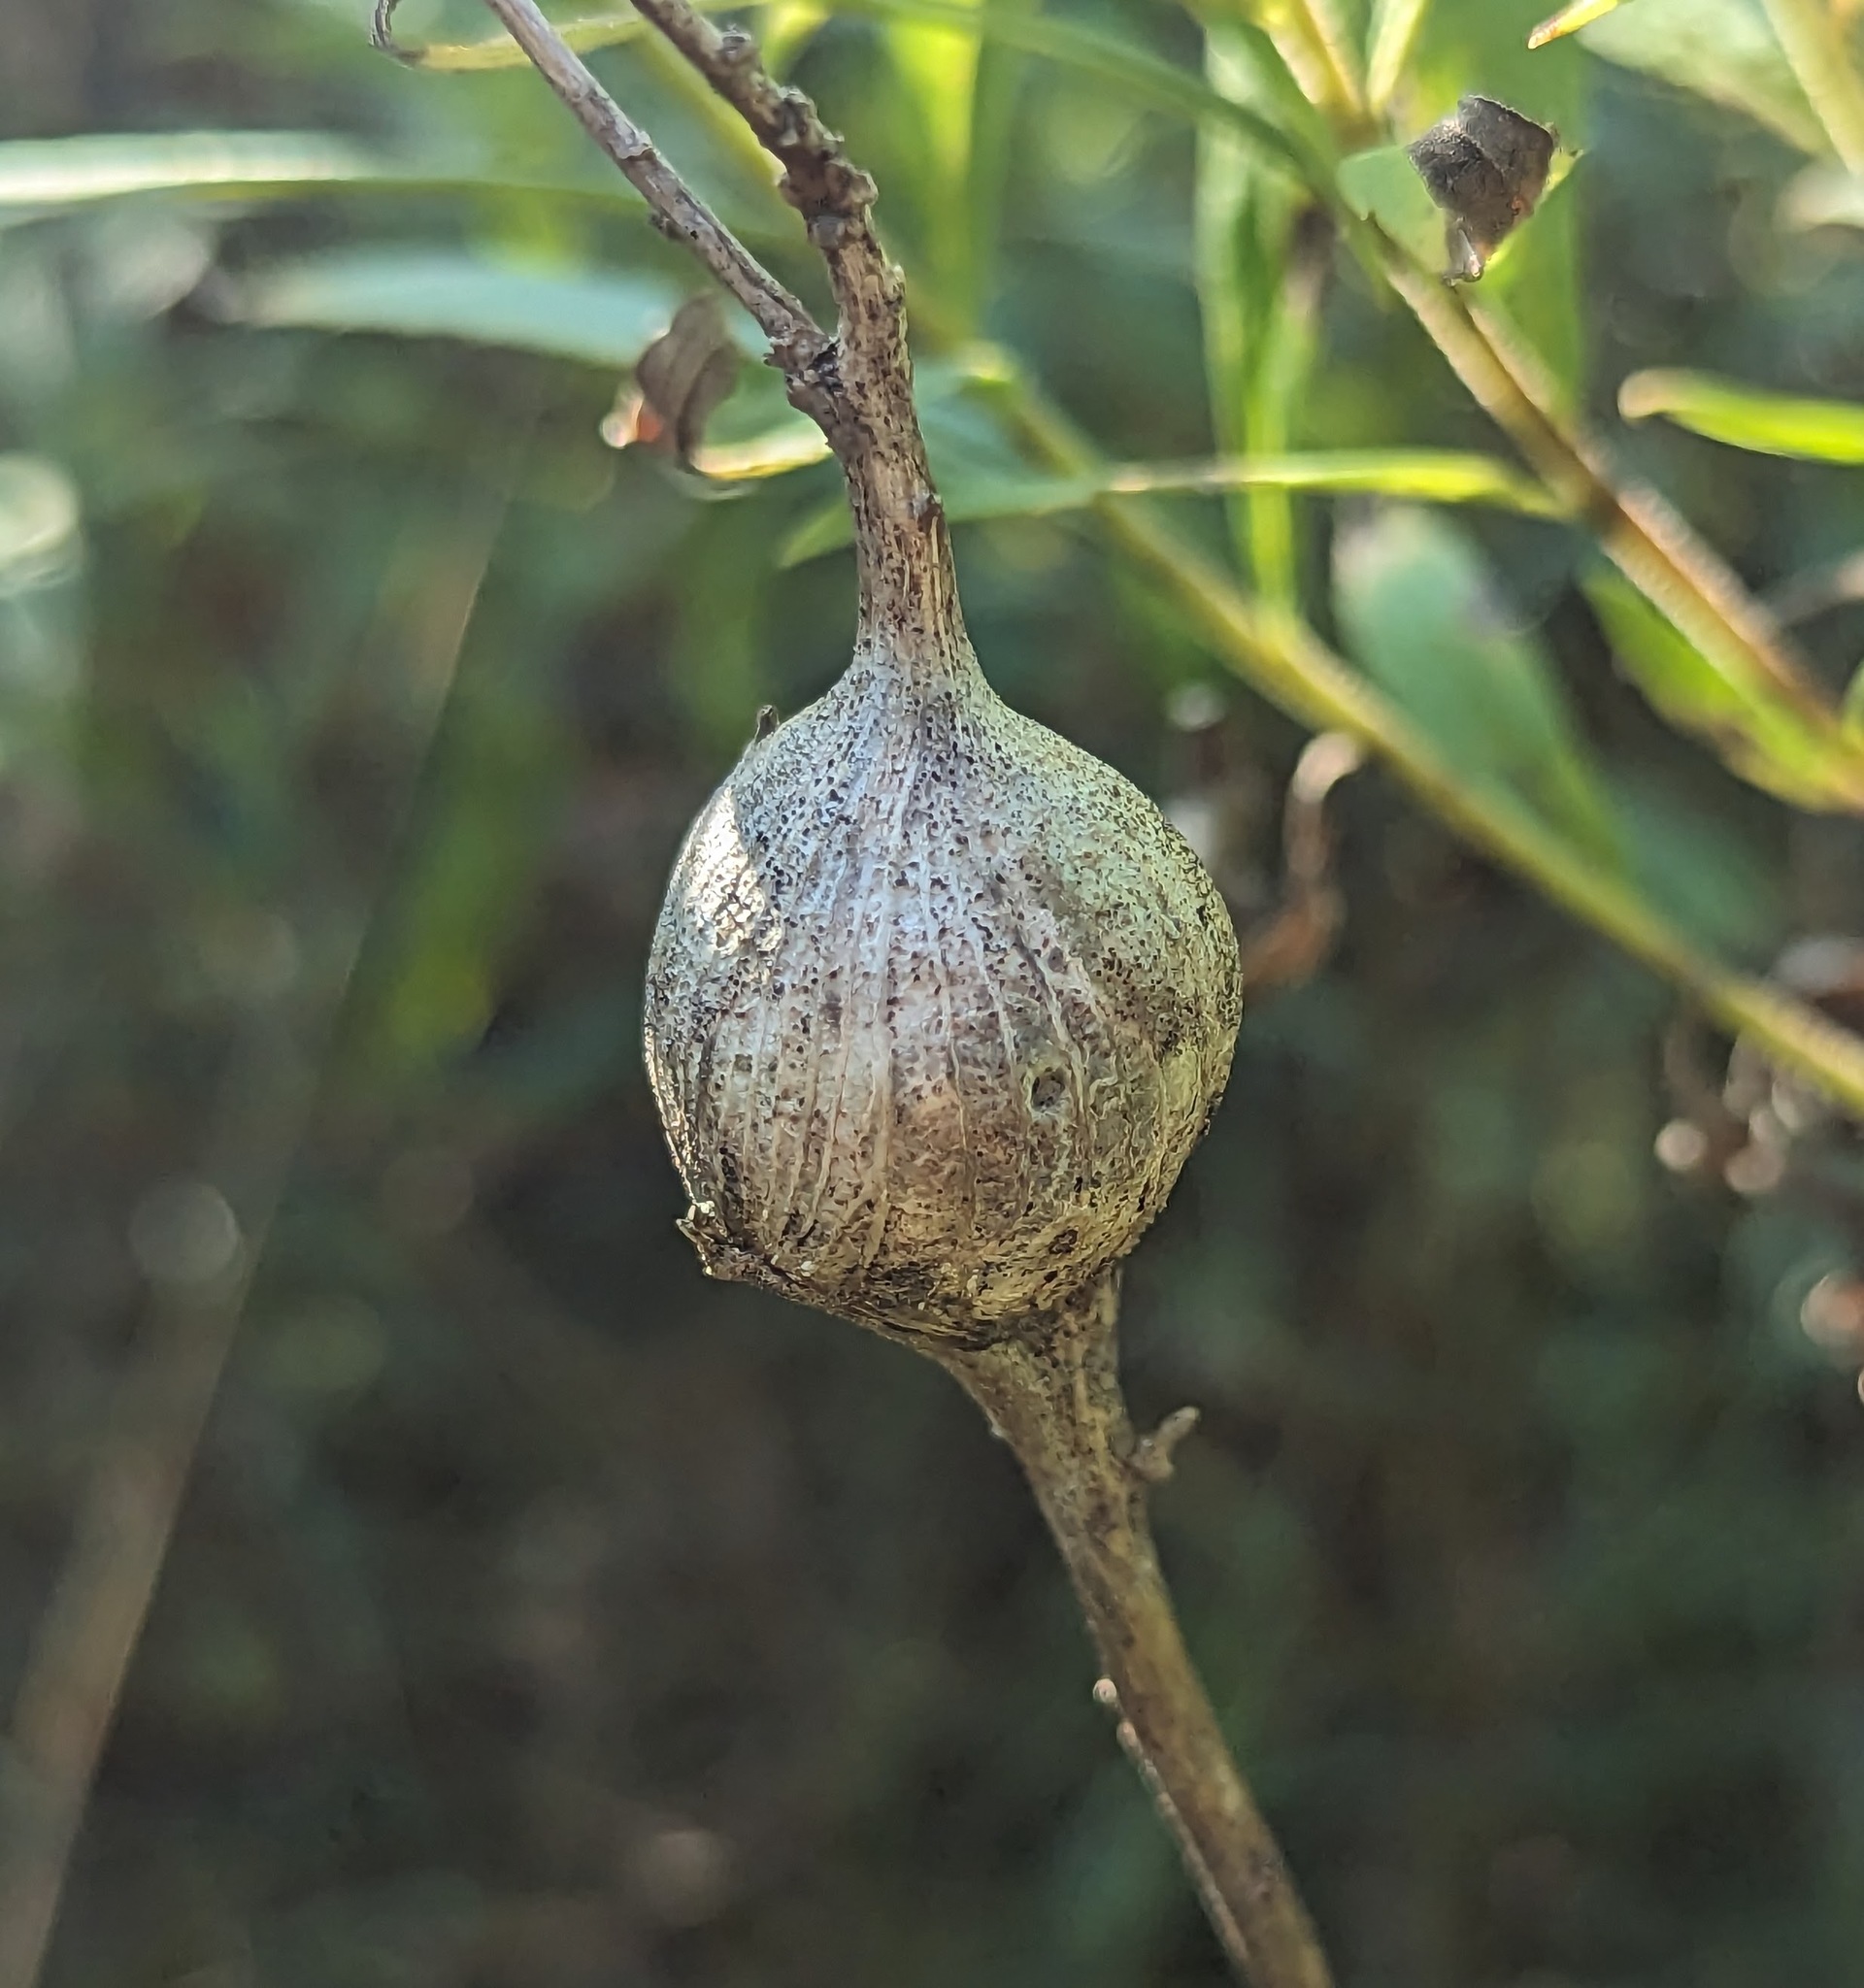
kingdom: Animalia
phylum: Arthropoda
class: Insecta
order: Diptera
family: Tephritidae
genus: Eurosta
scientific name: Eurosta solidaginis
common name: Goldenrod gall fly
